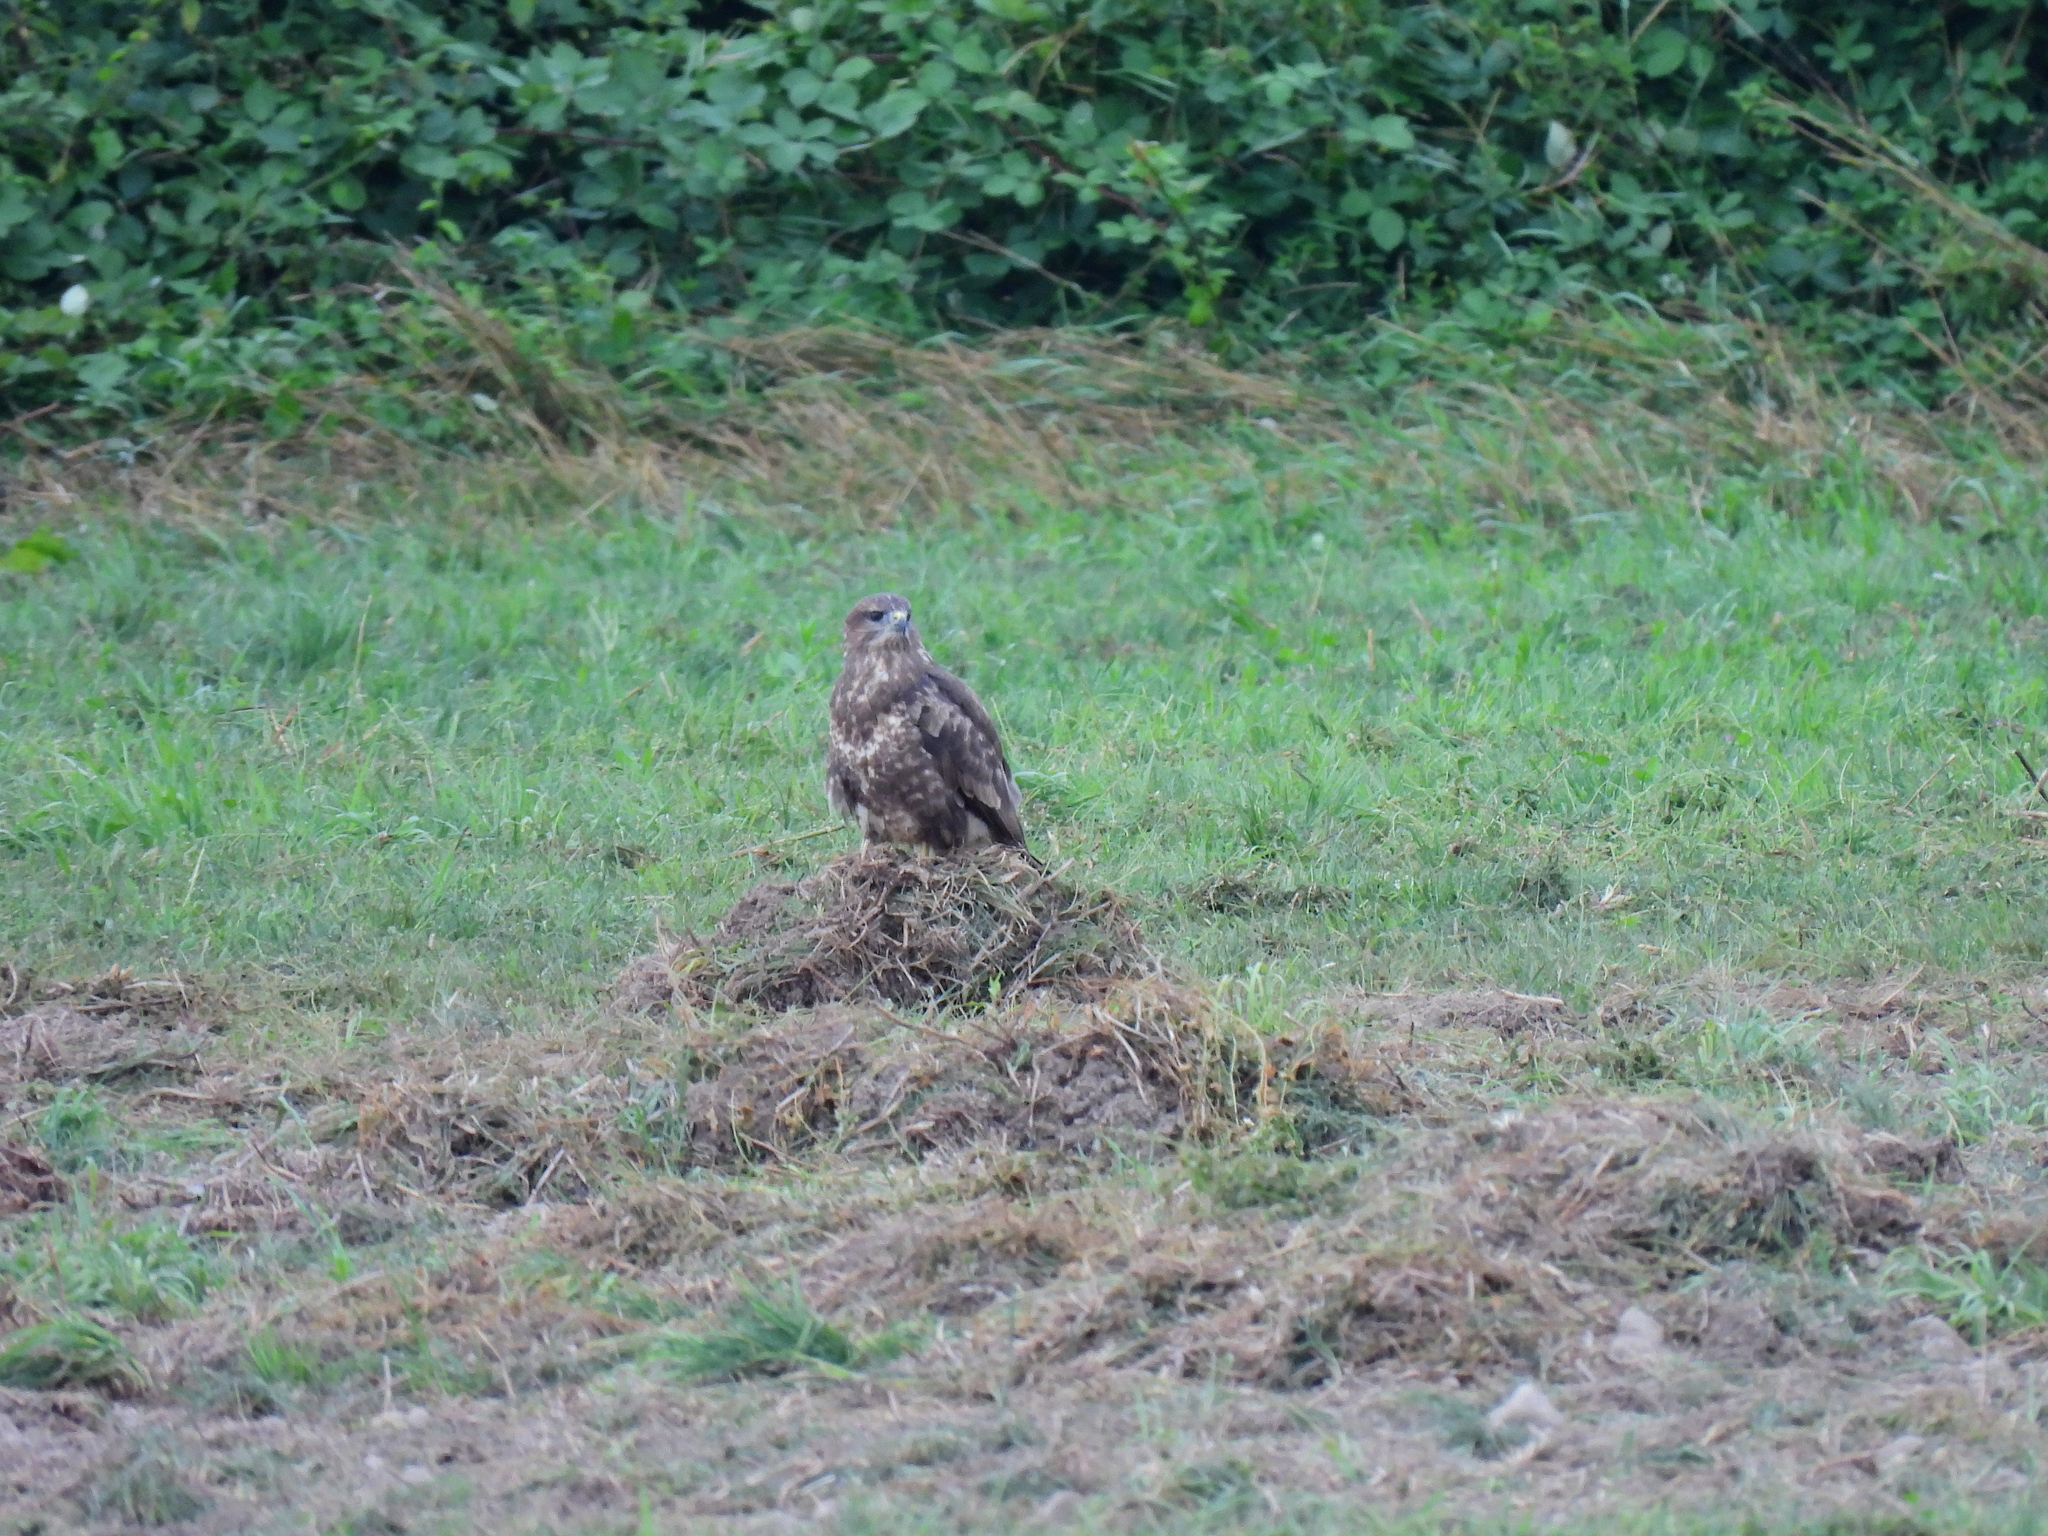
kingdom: Animalia
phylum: Chordata
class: Aves
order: Accipitriformes
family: Accipitridae
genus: Buteo
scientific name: Buteo buteo
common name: Common buzzard
